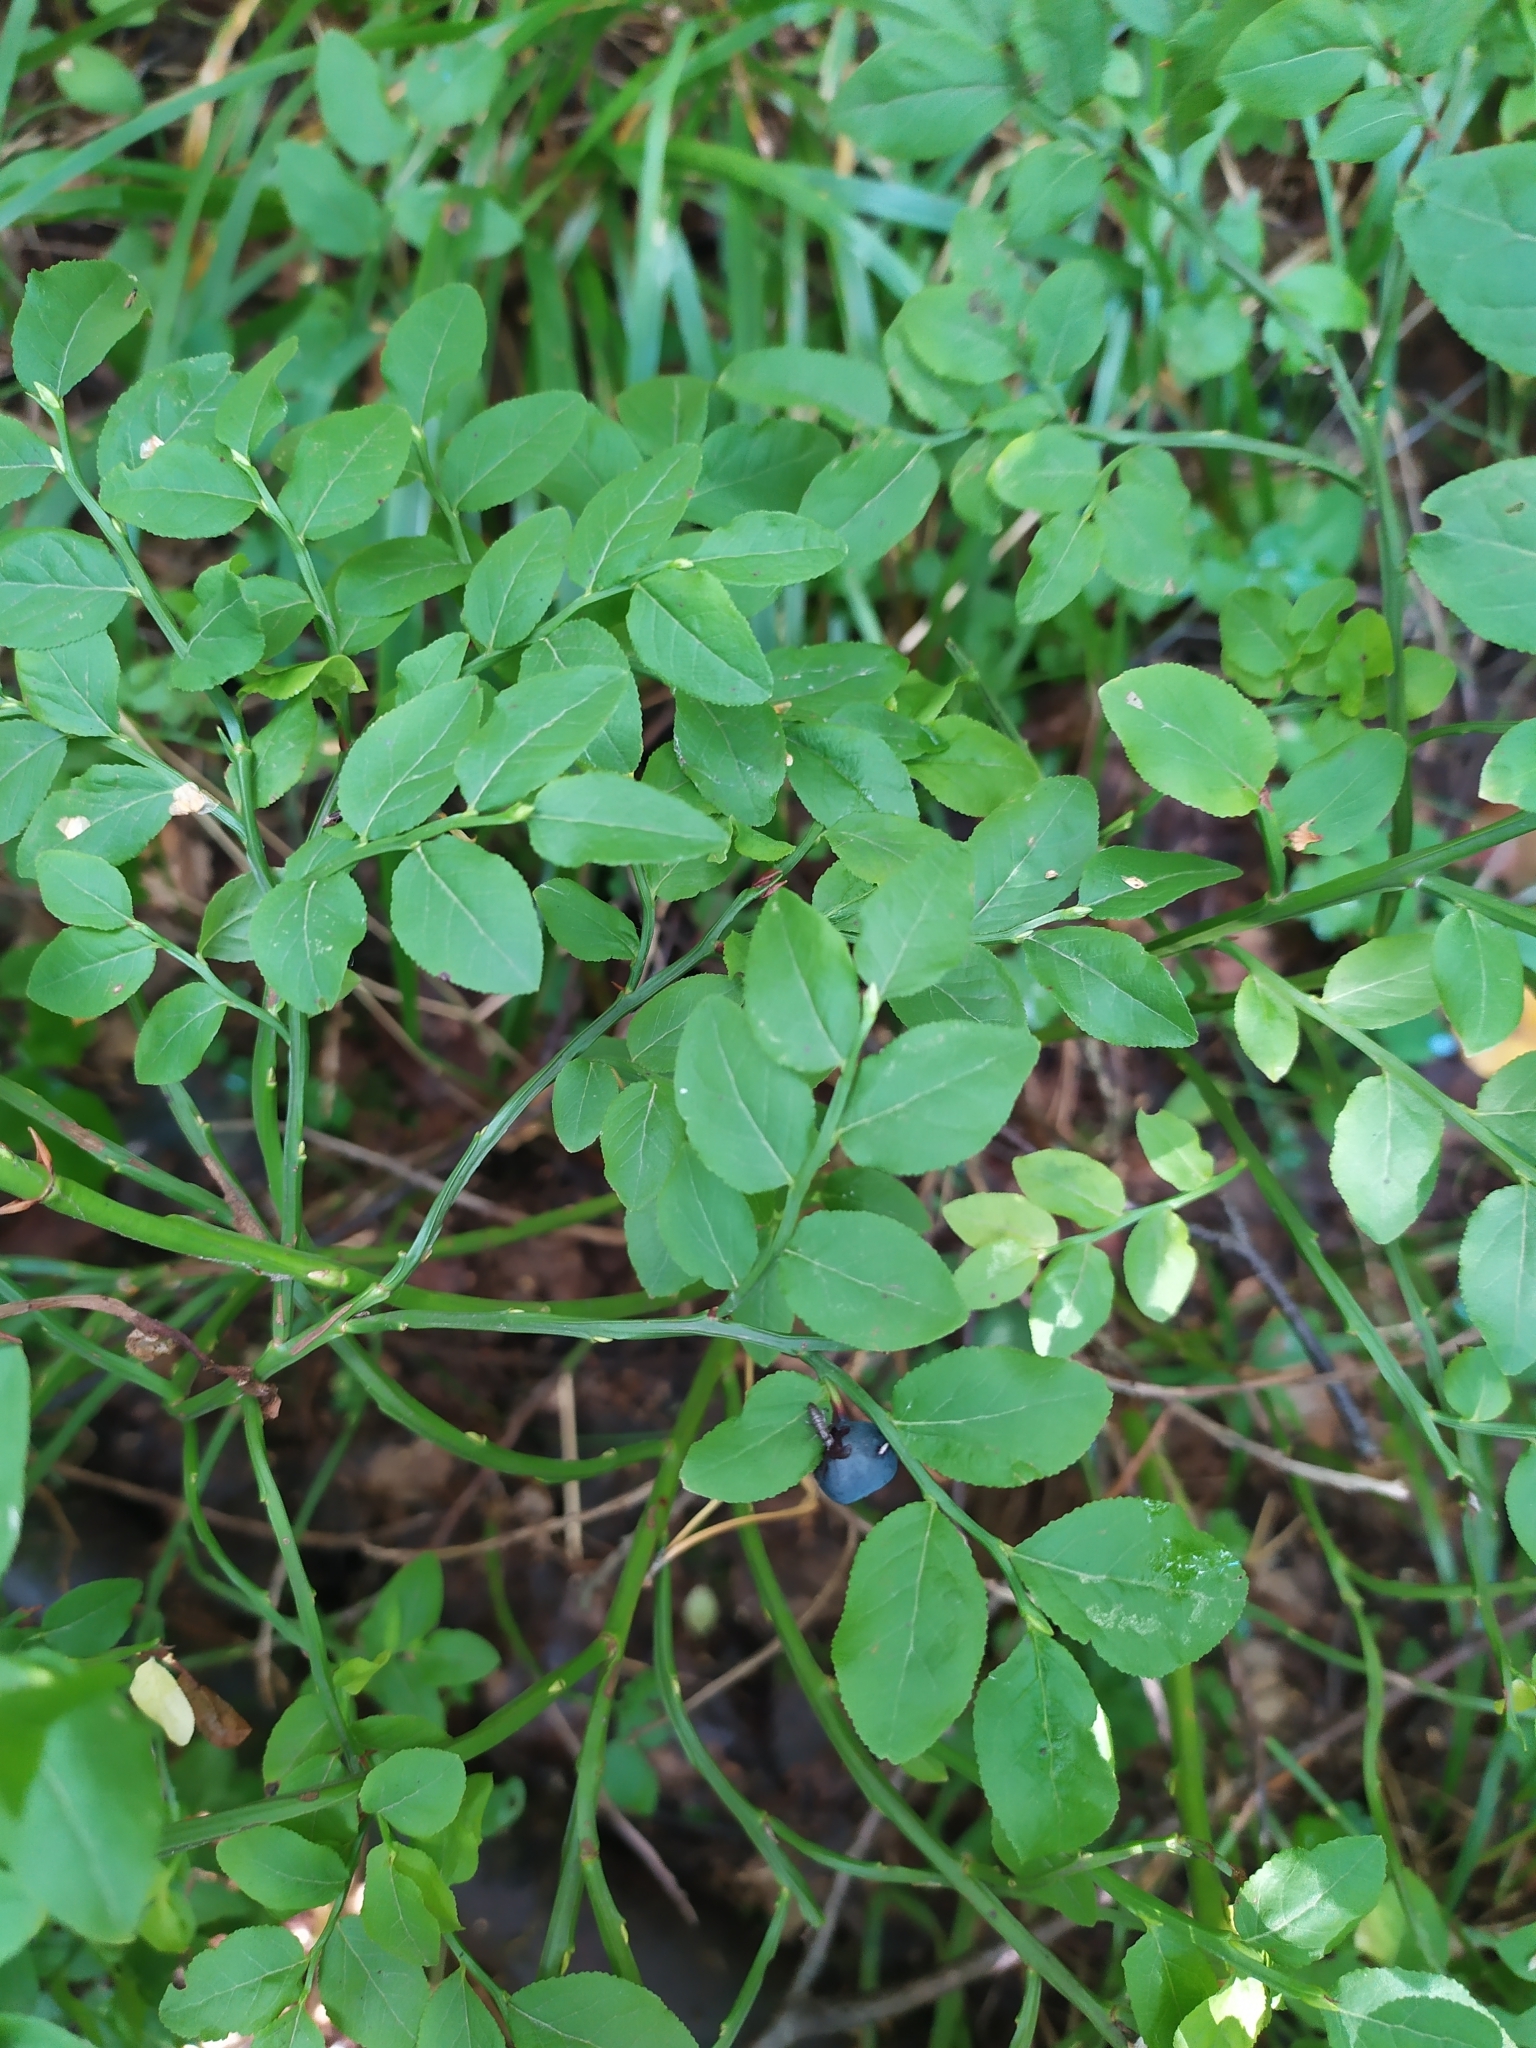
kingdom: Plantae
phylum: Tracheophyta
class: Magnoliopsida
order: Ericales
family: Ericaceae
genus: Vaccinium
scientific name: Vaccinium myrtillus
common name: Bilberry
